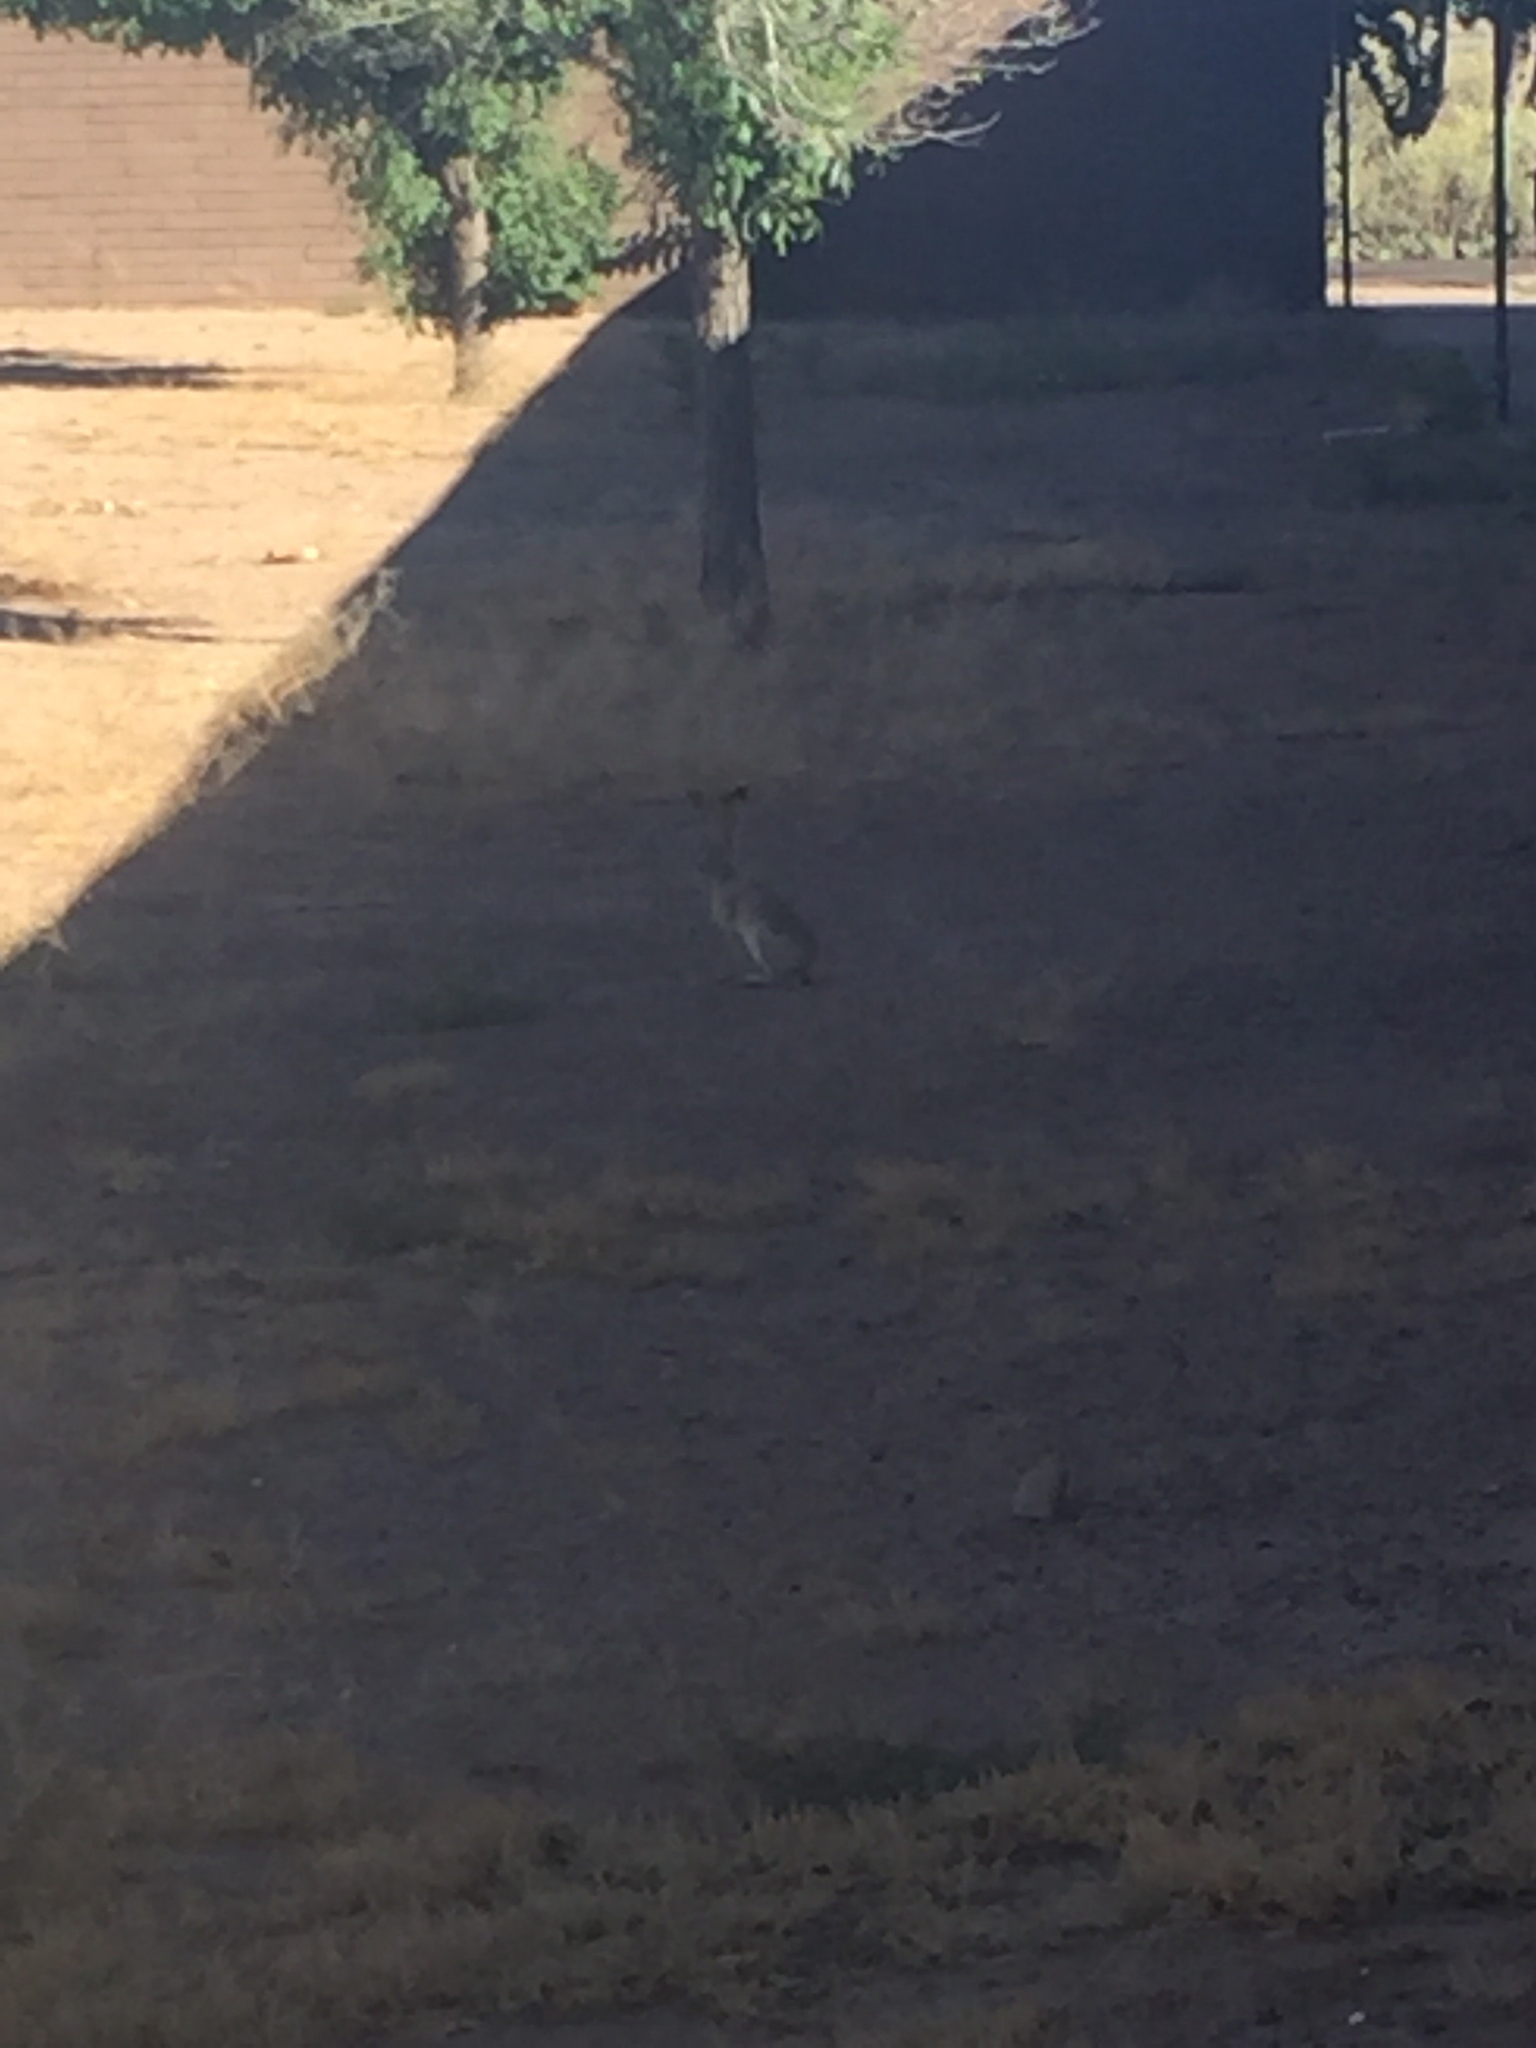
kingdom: Animalia
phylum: Chordata
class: Mammalia
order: Lagomorpha
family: Leporidae
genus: Lepus
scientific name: Lepus californicus
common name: Black-tailed jackrabbit
